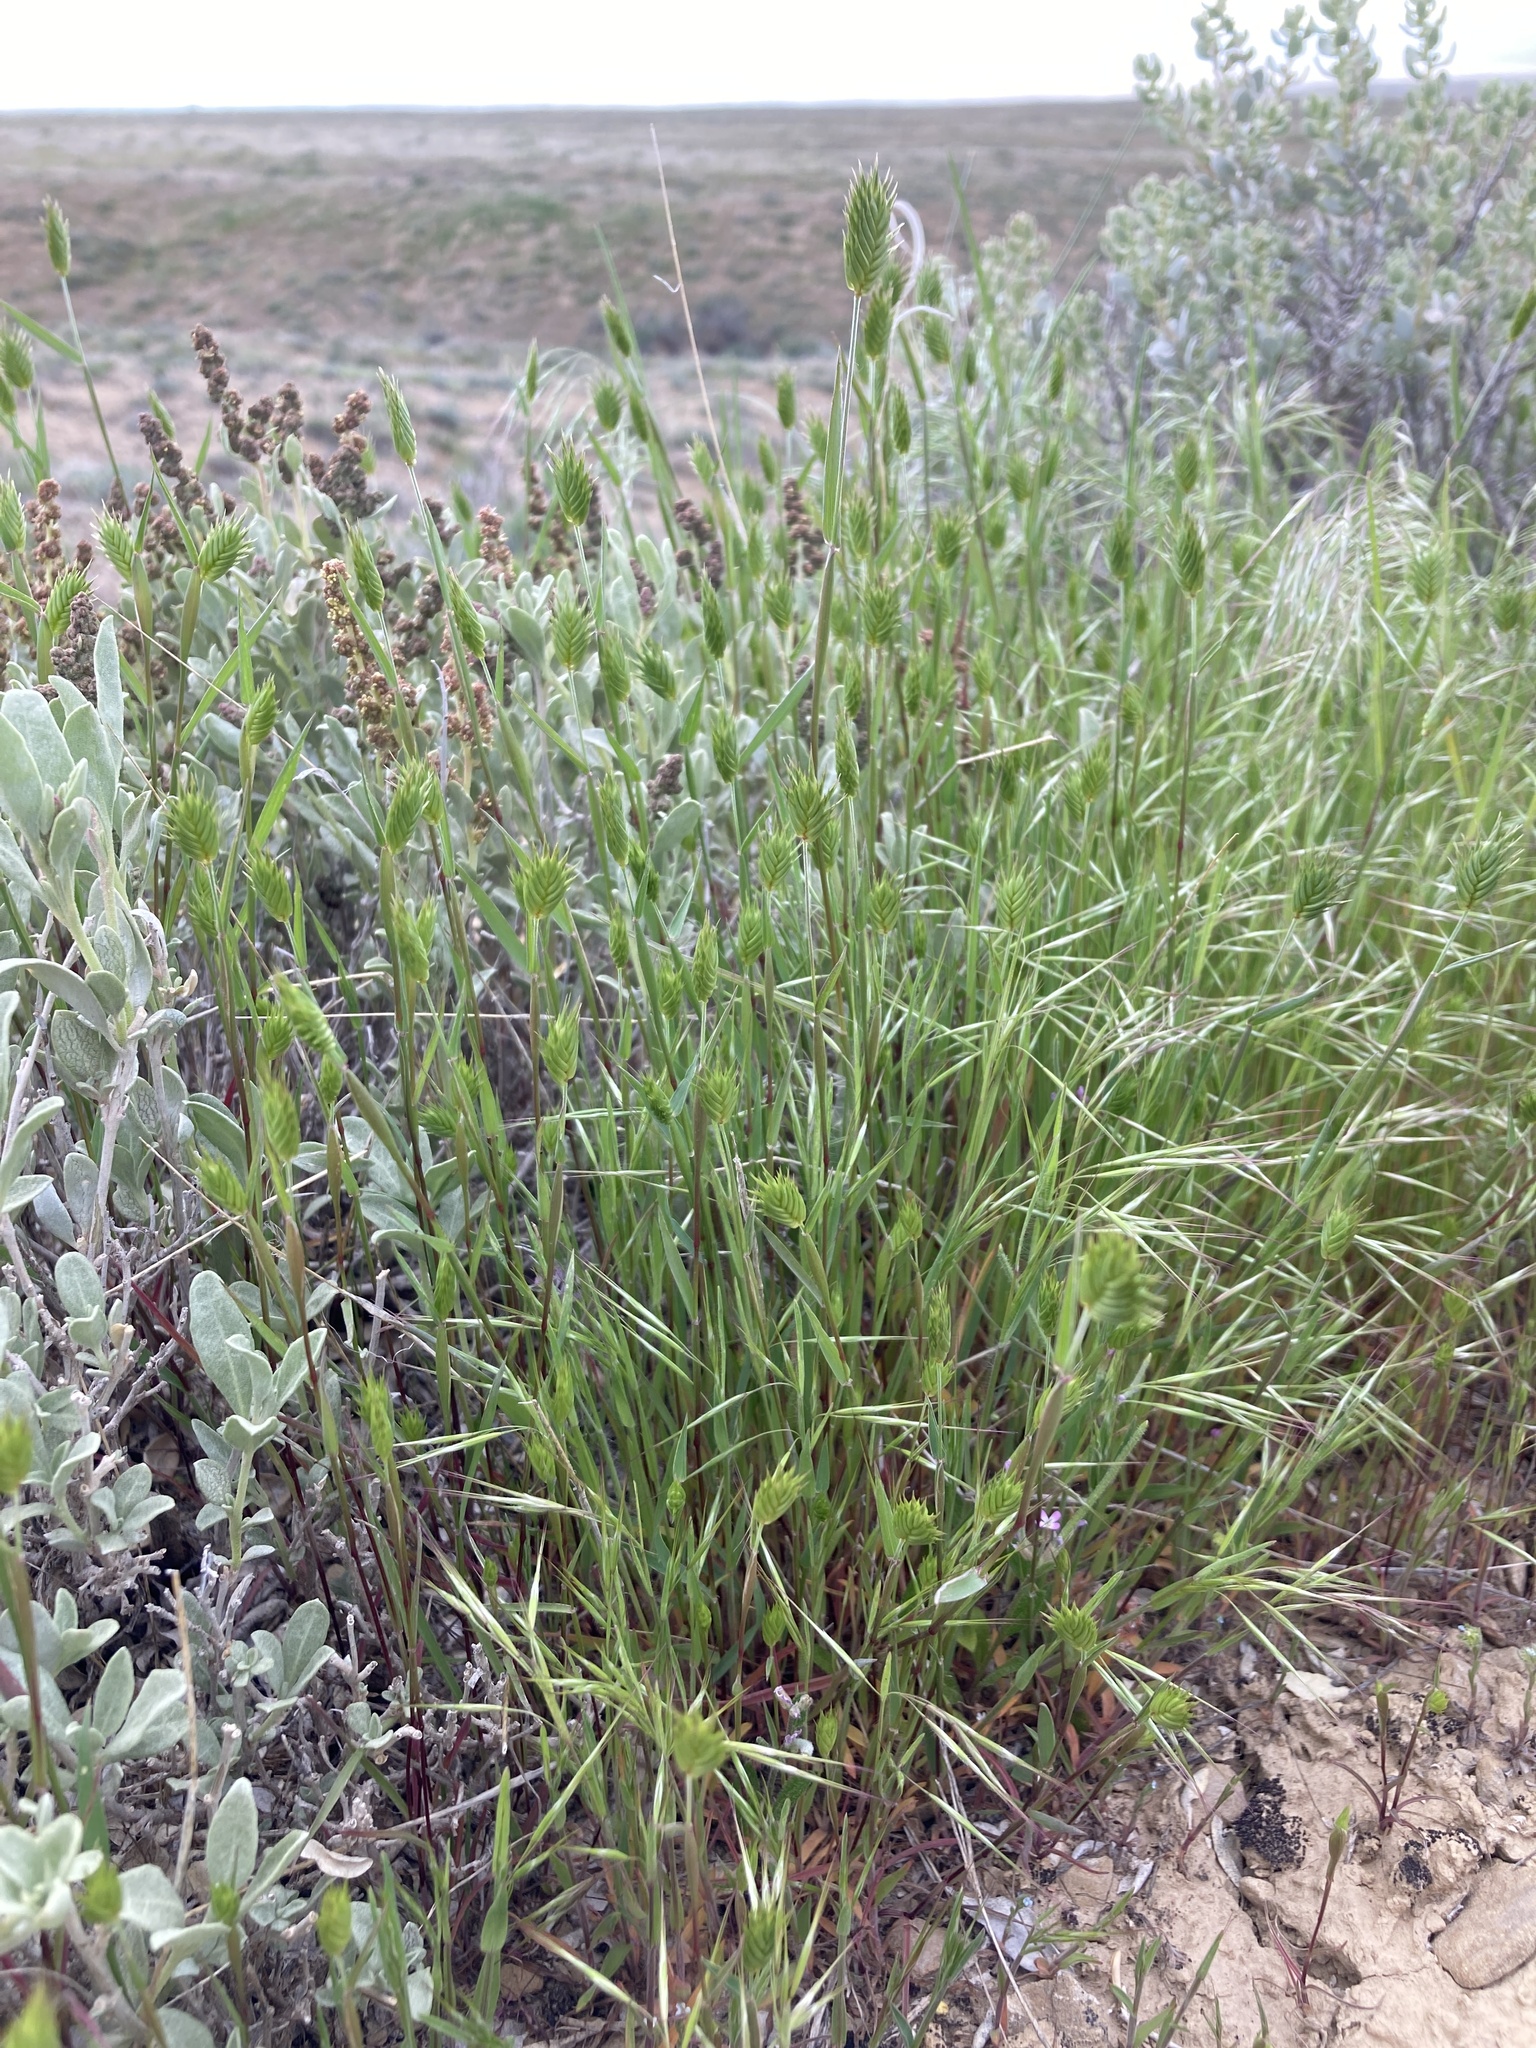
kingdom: Plantae
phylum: Tracheophyta
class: Liliopsida
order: Poales
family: Poaceae
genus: Eremopyrum
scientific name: Eremopyrum triticeum
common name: Annual wheatgrass
